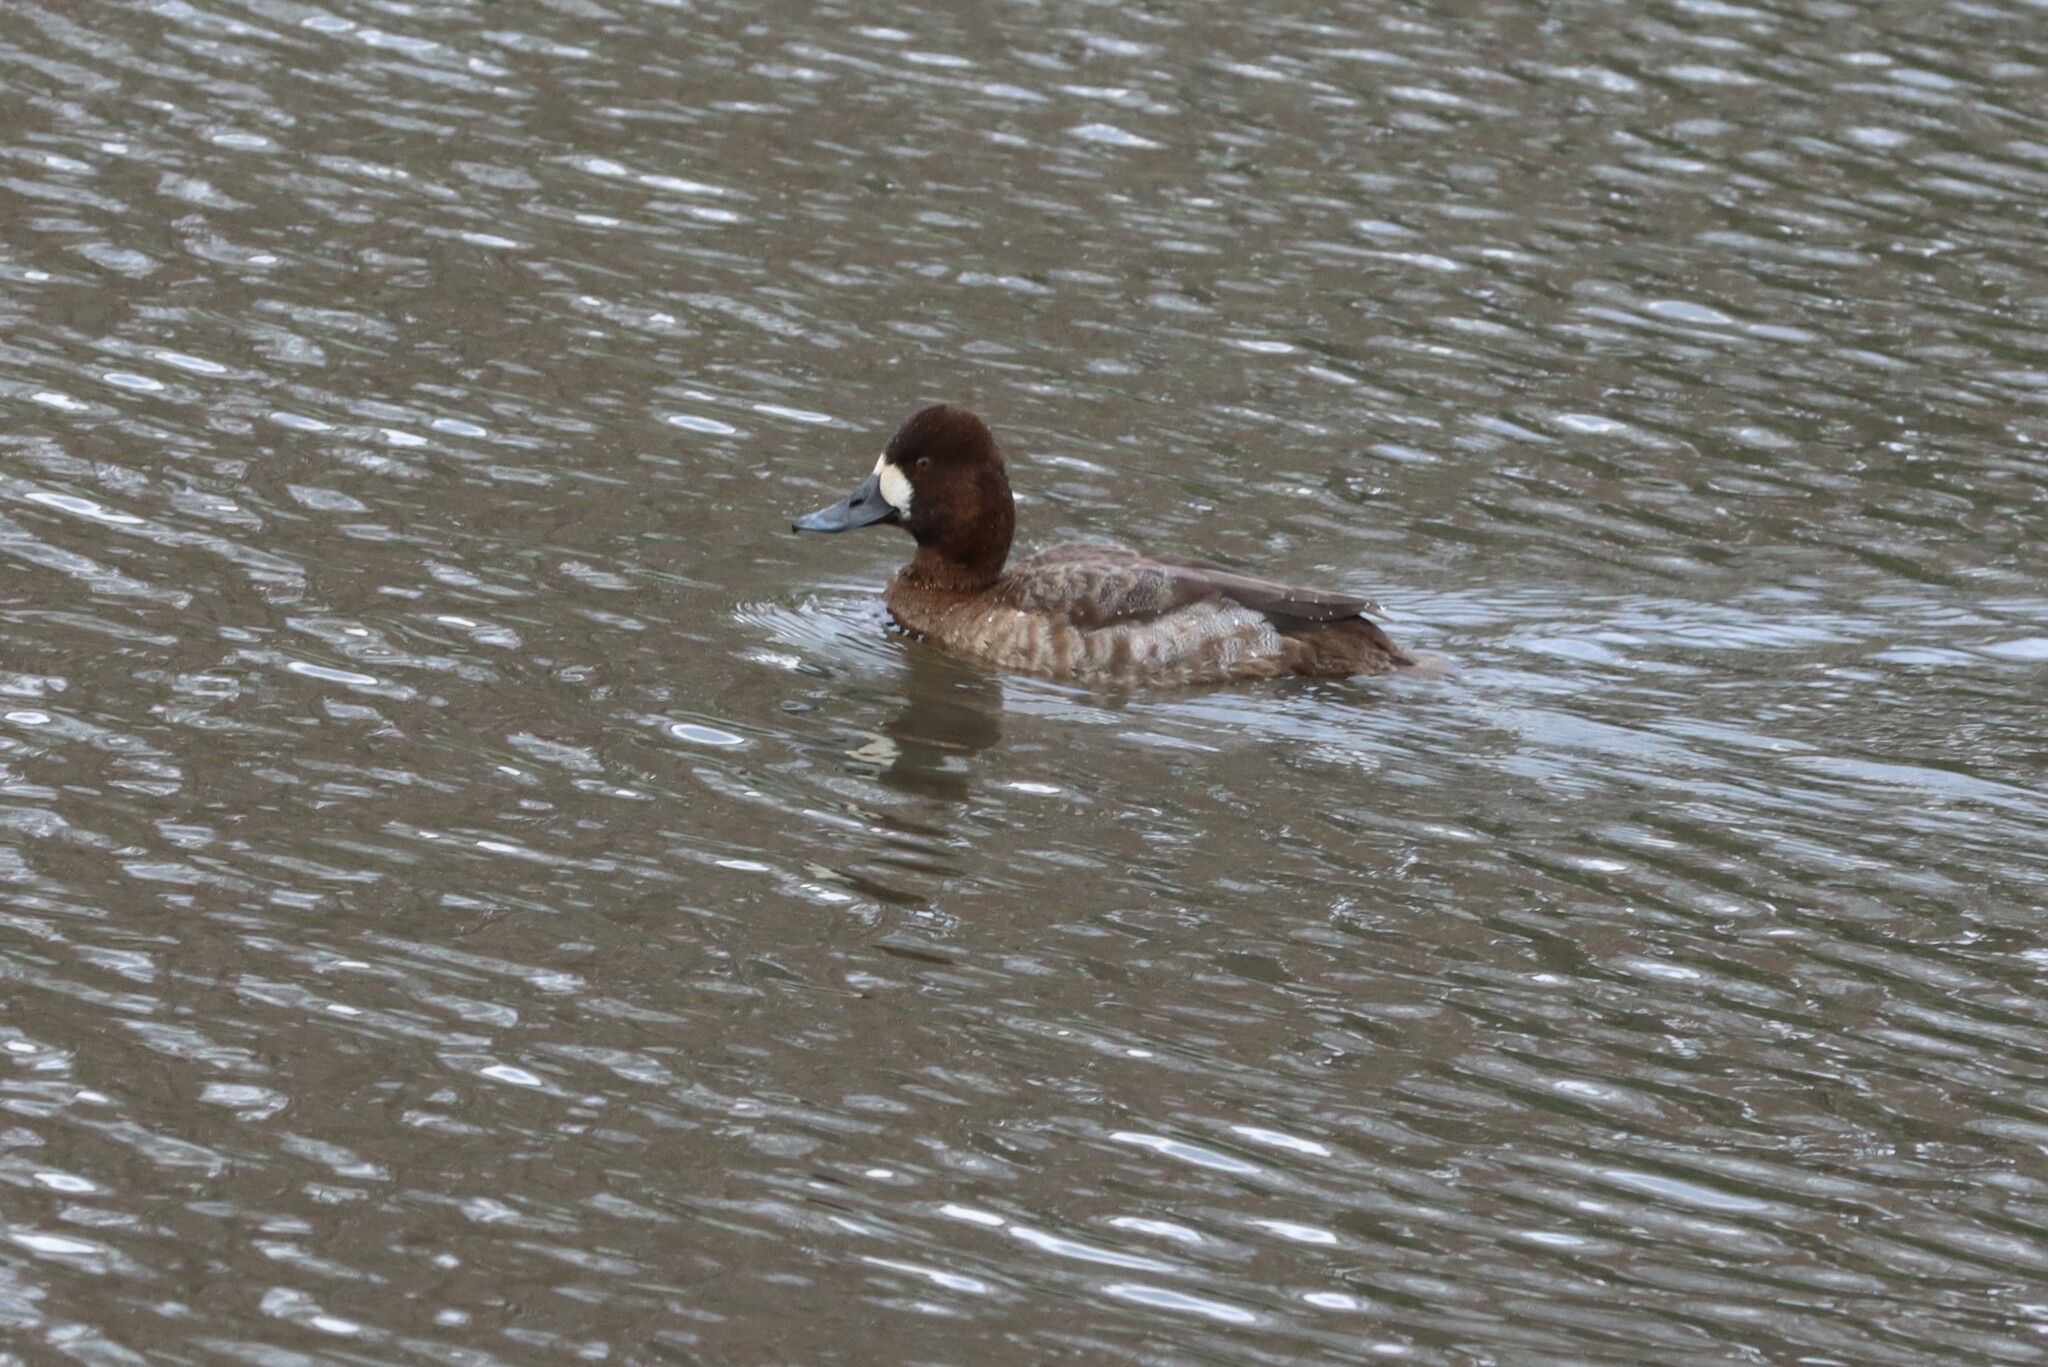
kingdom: Animalia
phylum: Chordata
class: Aves
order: Anseriformes
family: Anatidae
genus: Aythya
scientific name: Aythya affinis
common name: Lesser scaup
